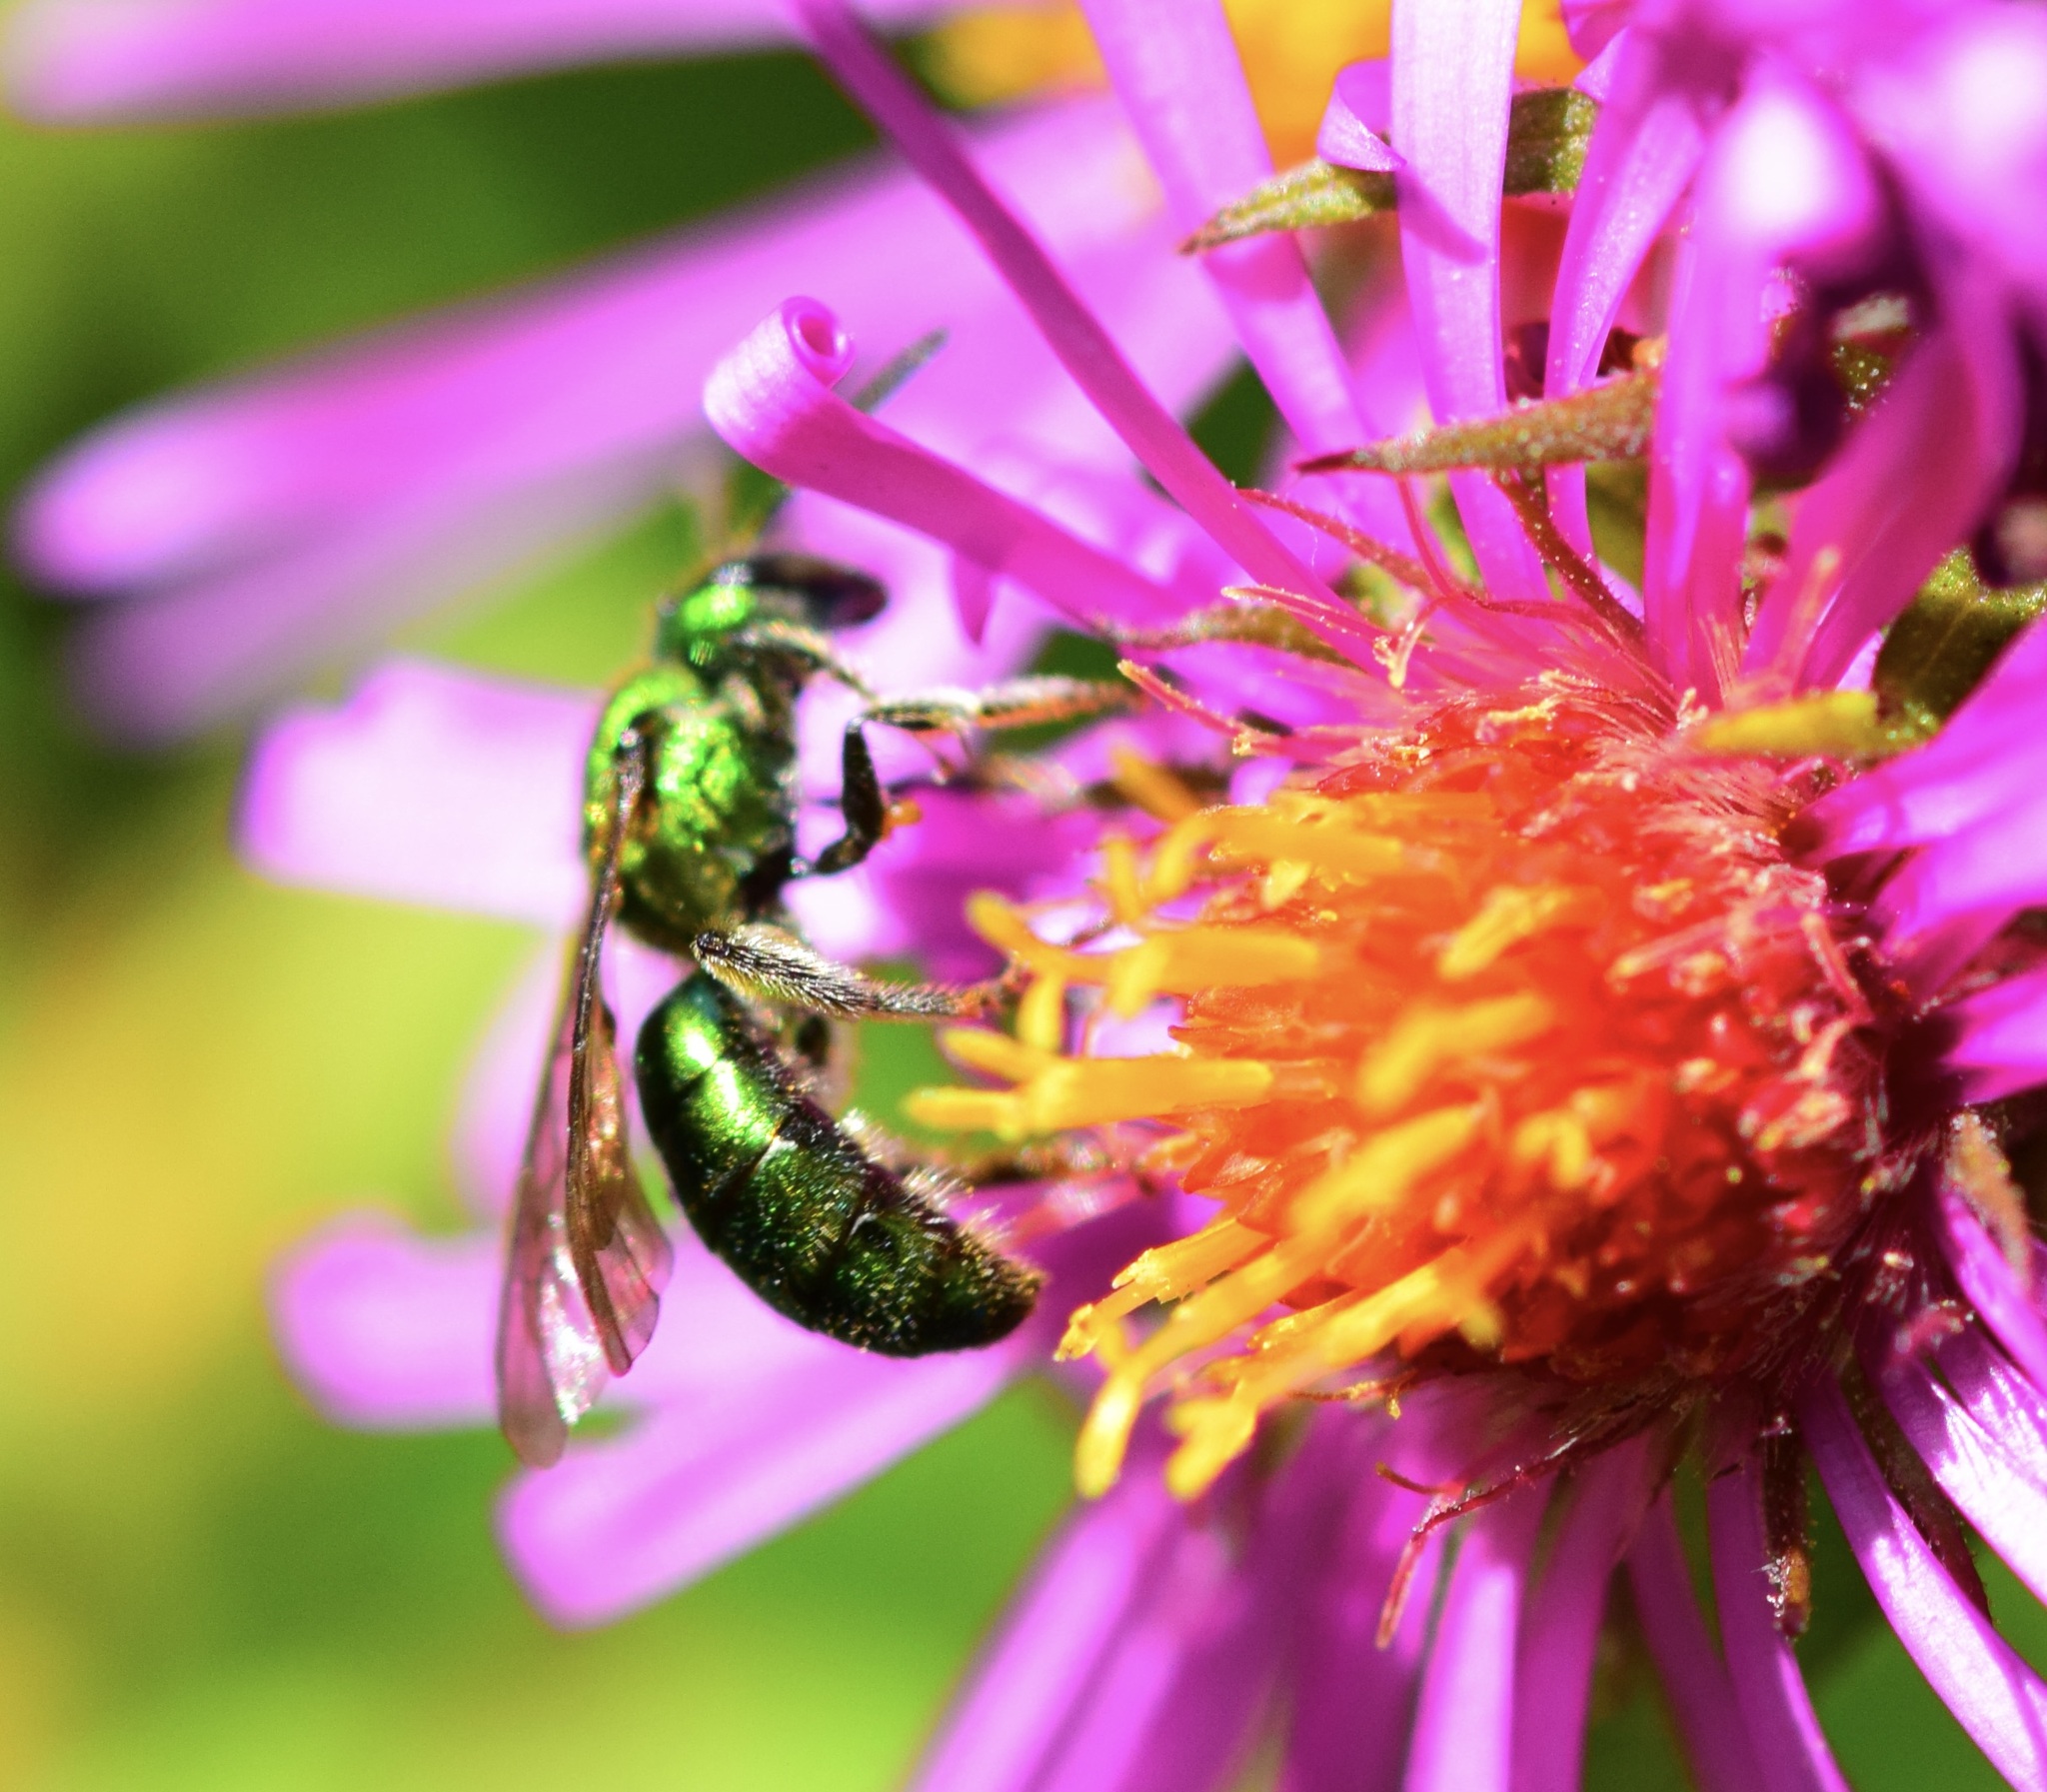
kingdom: Animalia
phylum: Arthropoda
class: Insecta
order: Hymenoptera
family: Halictidae
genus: Augochlora
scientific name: Augochlora pura
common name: Pure green sweat bee
